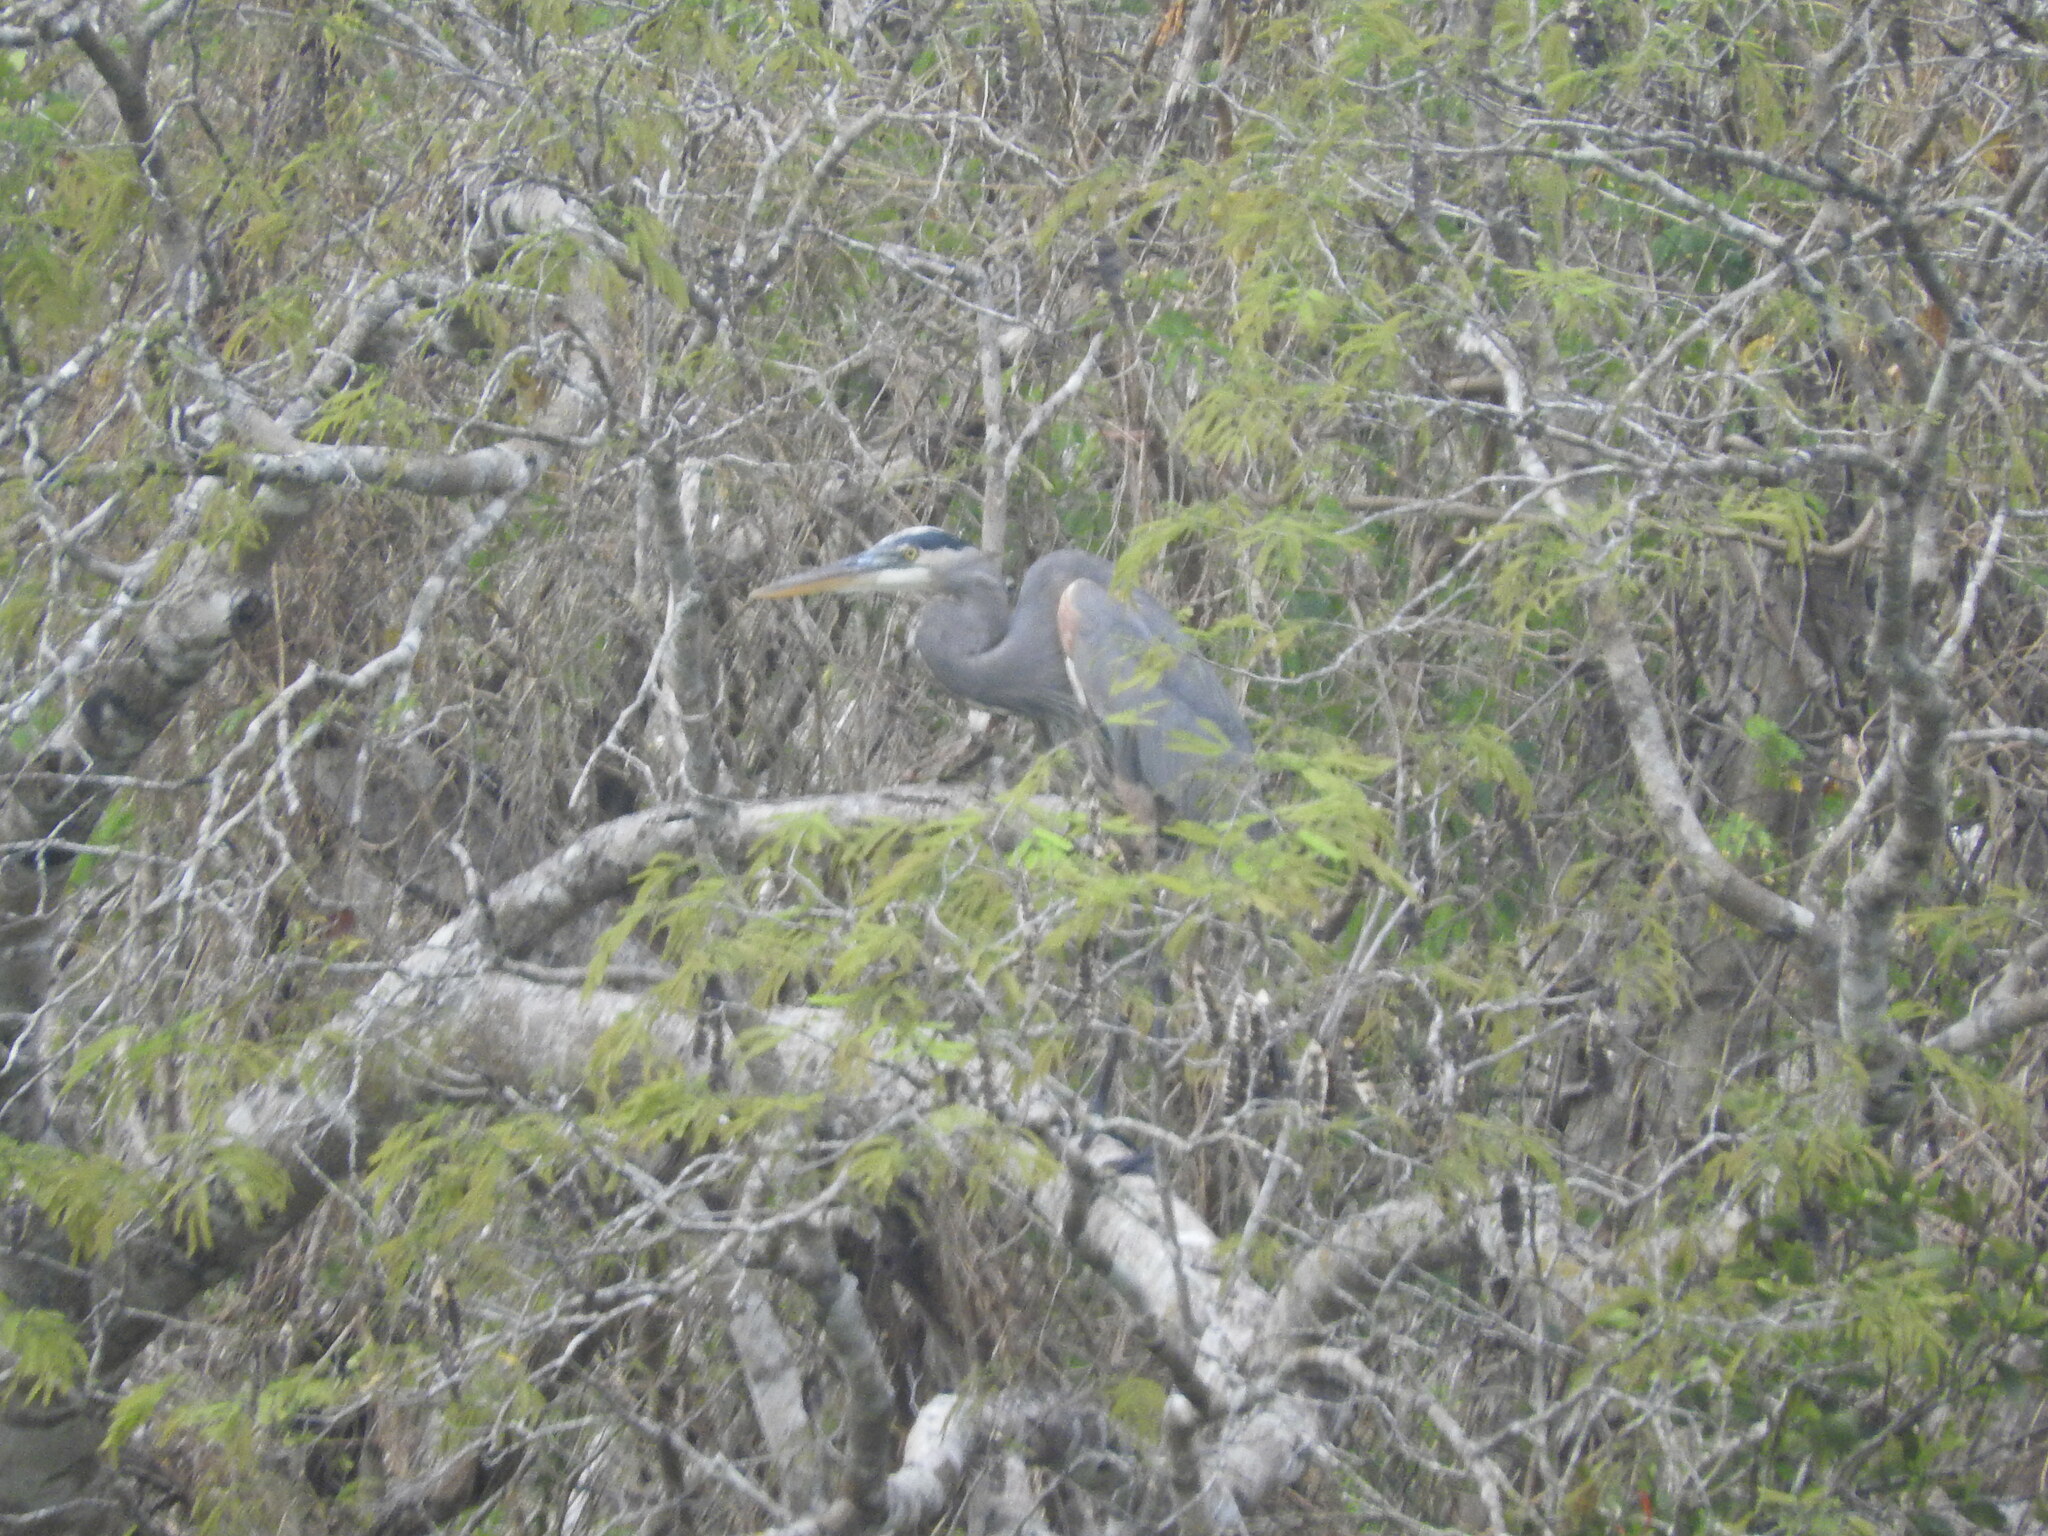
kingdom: Animalia
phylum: Chordata
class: Aves
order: Pelecaniformes
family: Ardeidae
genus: Ardea
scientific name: Ardea herodias
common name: Great blue heron
